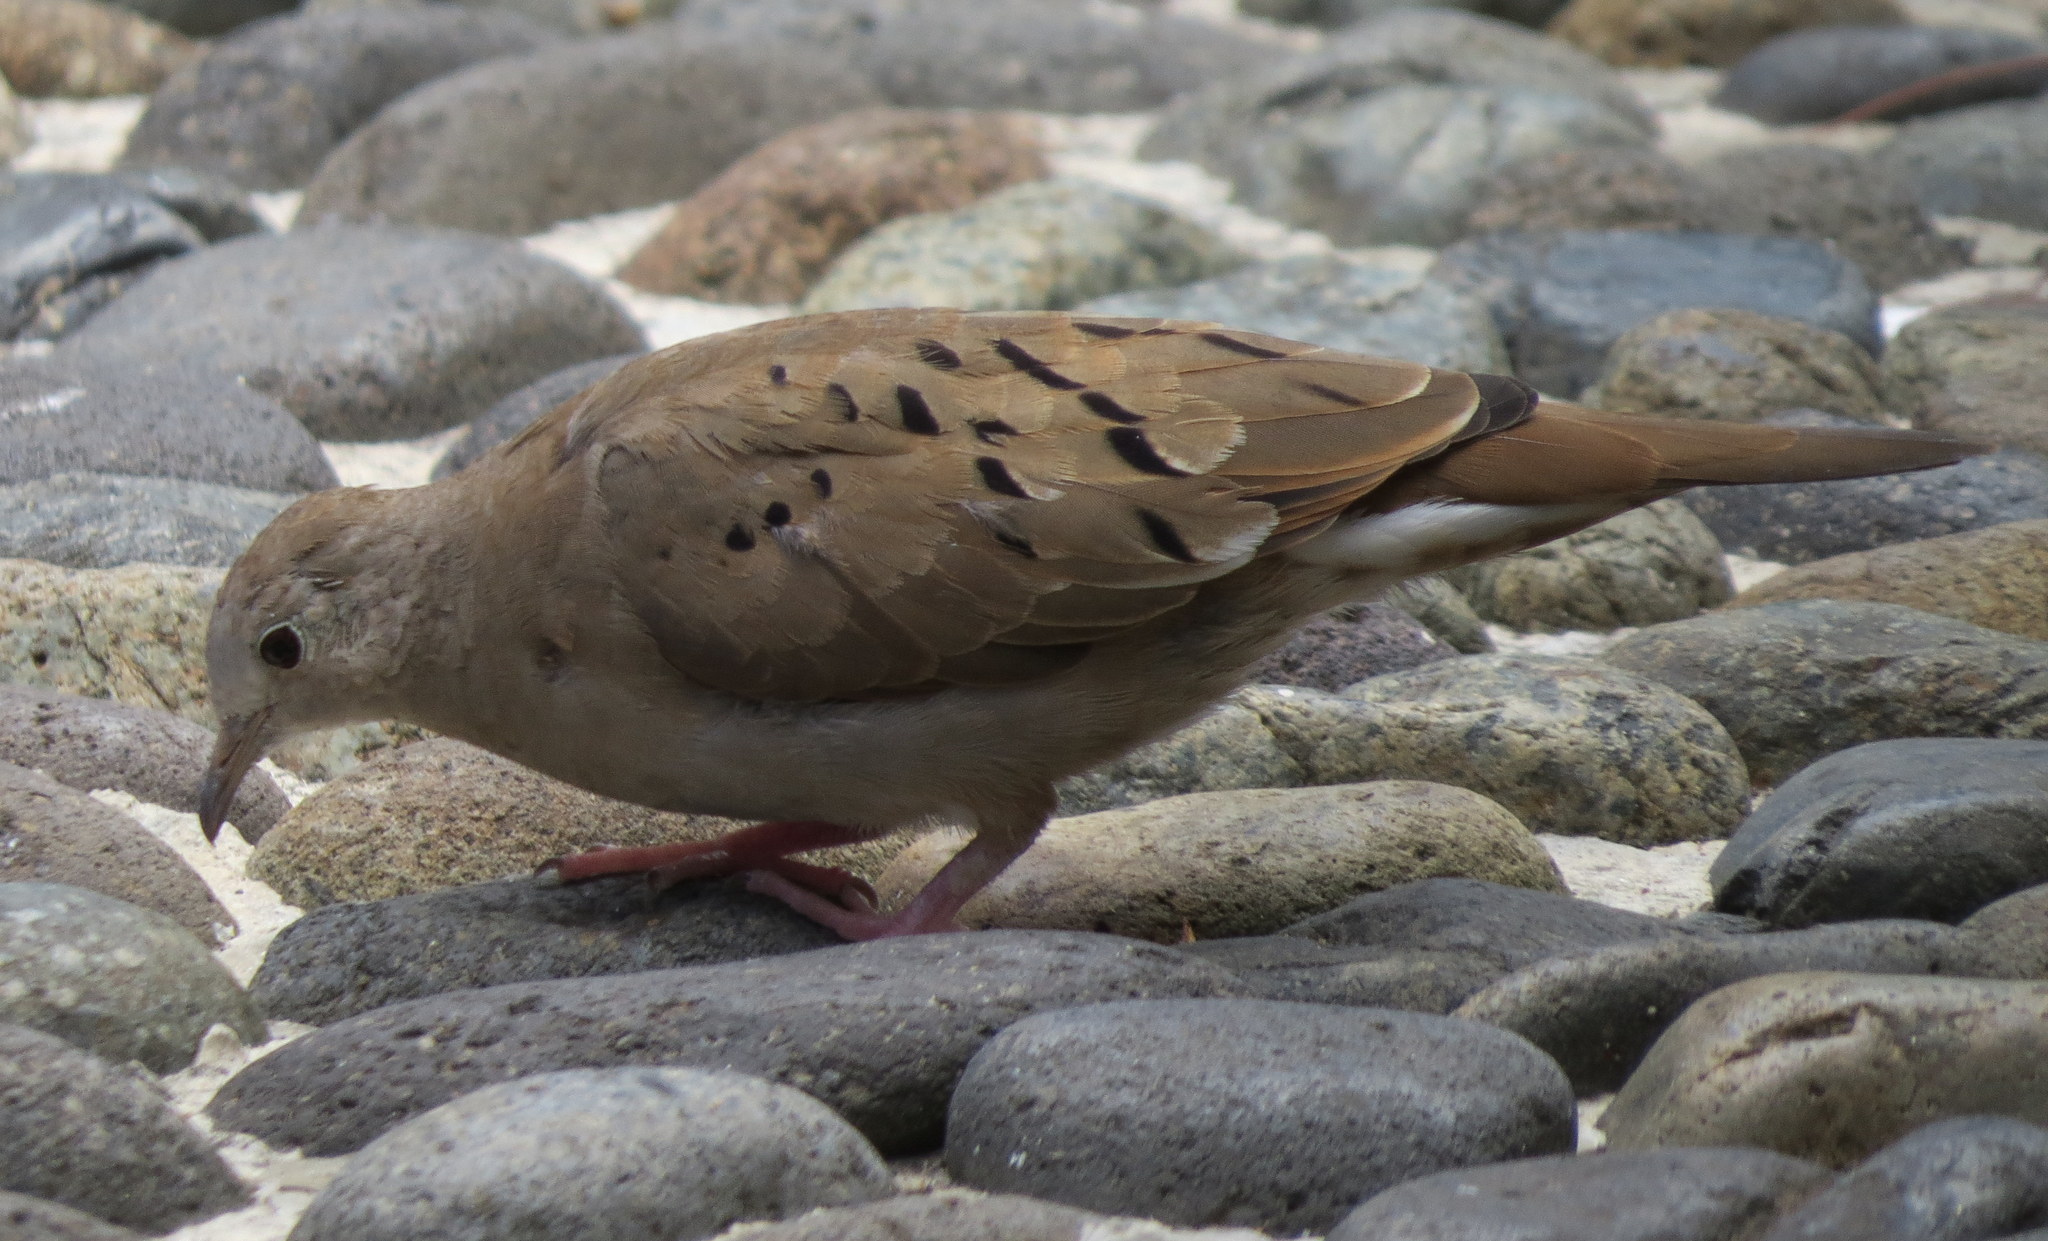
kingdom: Animalia
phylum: Chordata
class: Aves
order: Columbiformes
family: Columbidae
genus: Columbina
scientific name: Columbina talpacoti
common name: Ruddy ground dove
